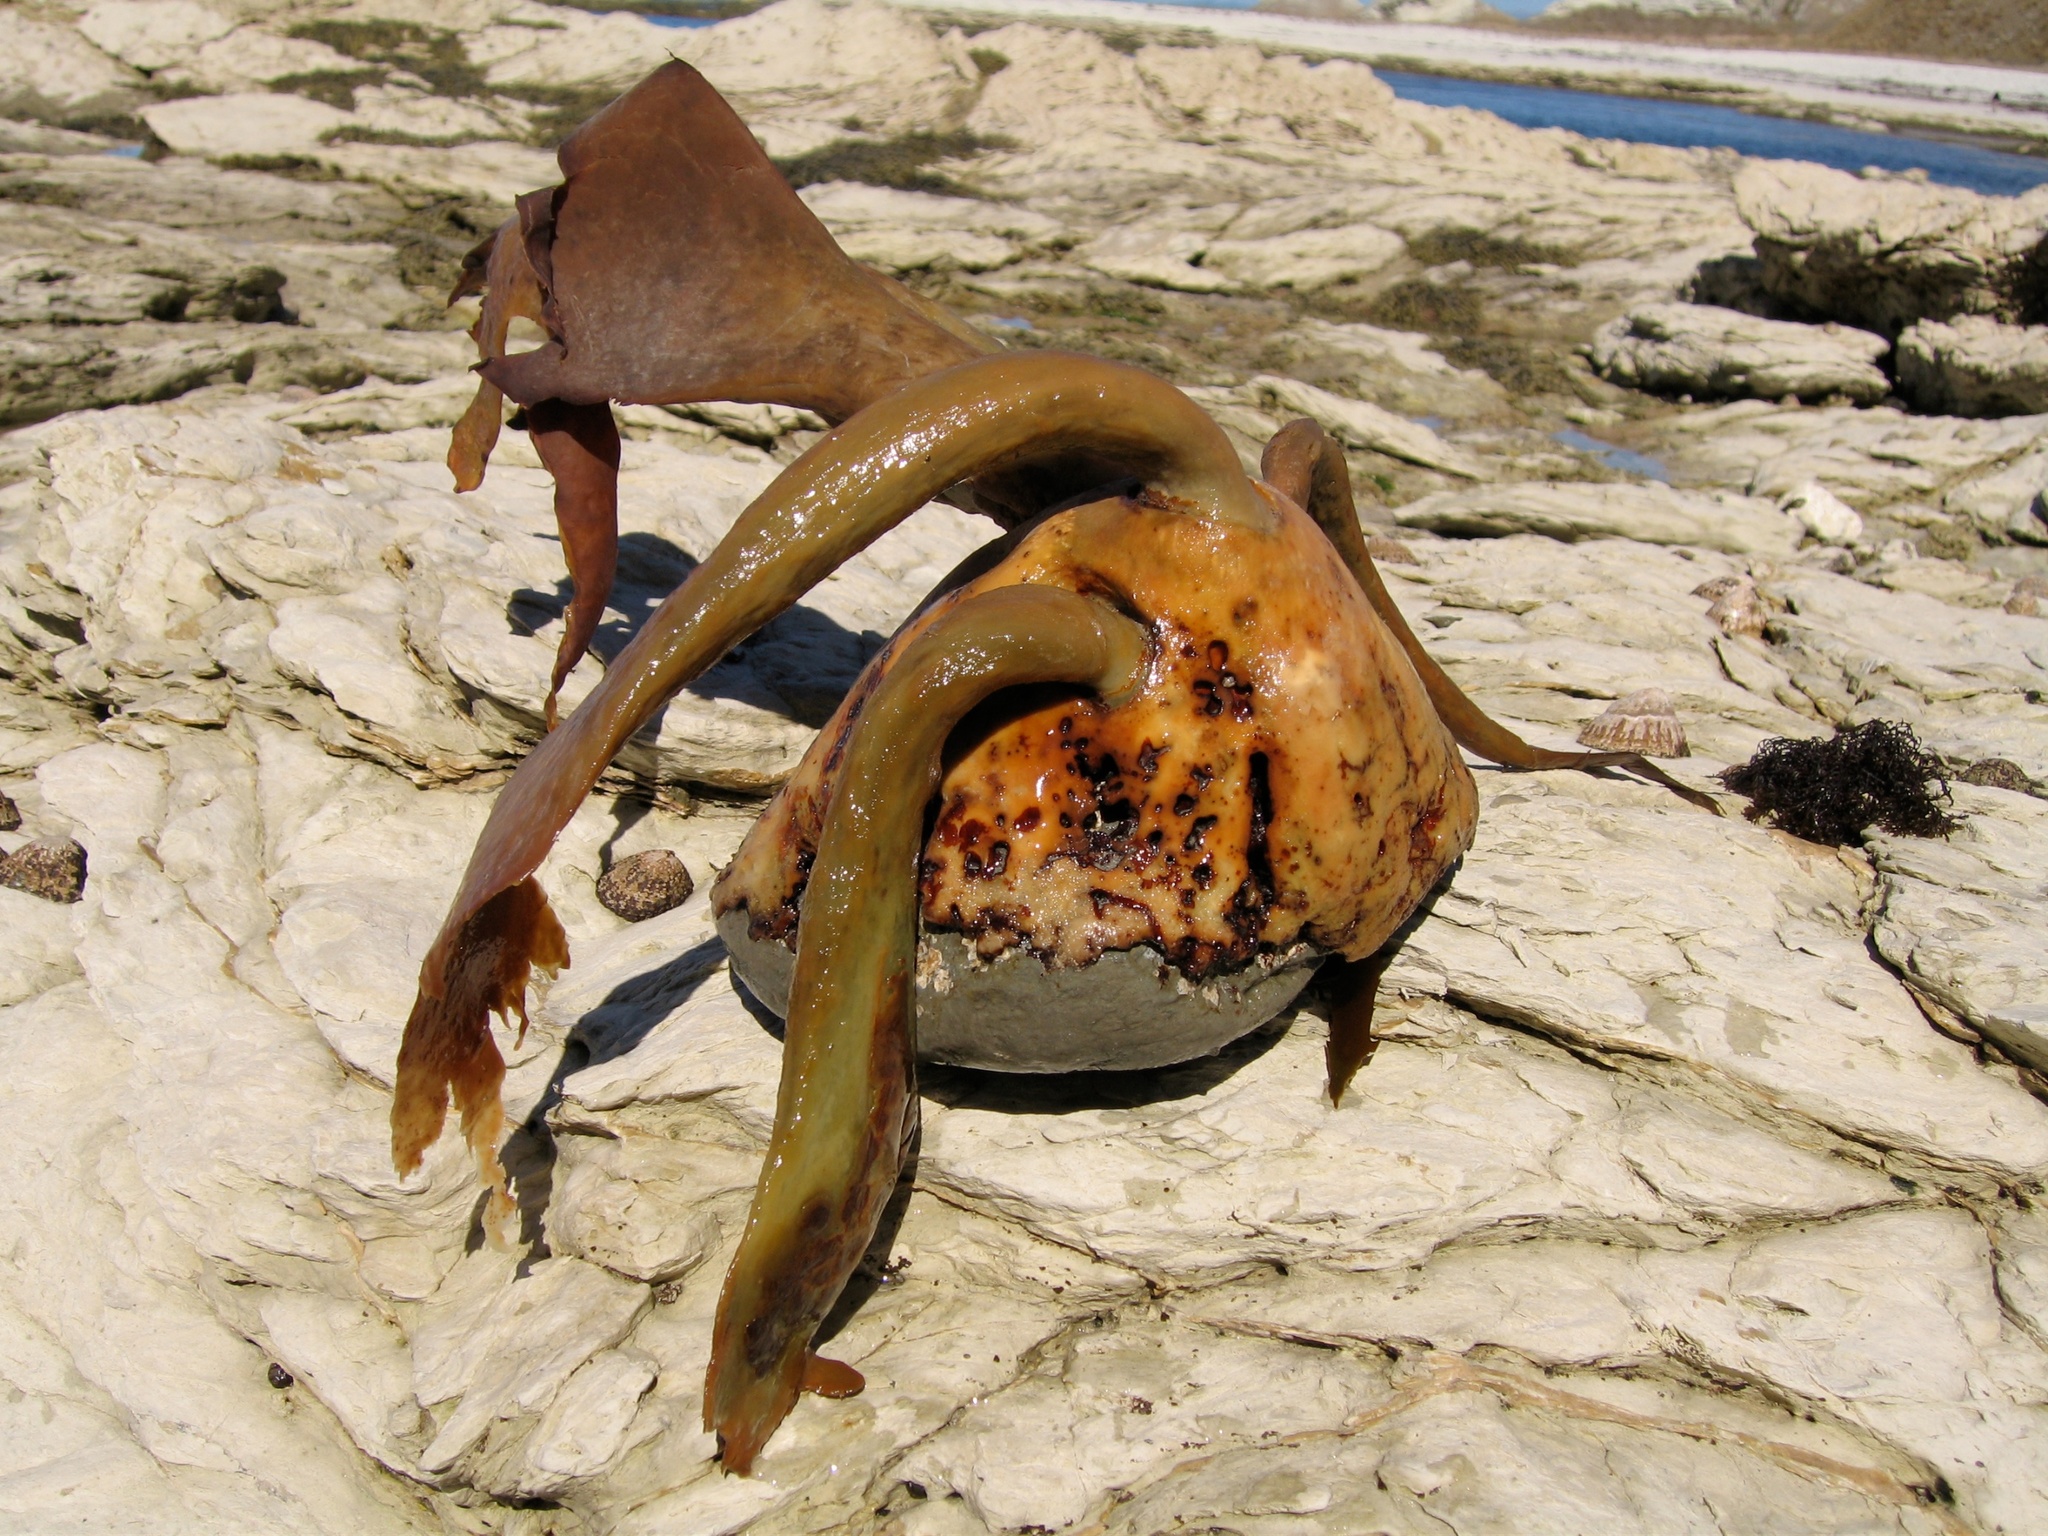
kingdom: Chromista
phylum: Ochrophyta
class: Phaeophyceae
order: Fucales
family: Durvillaeaceae
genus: Durvillaea
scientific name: Durvillaea antarctica
